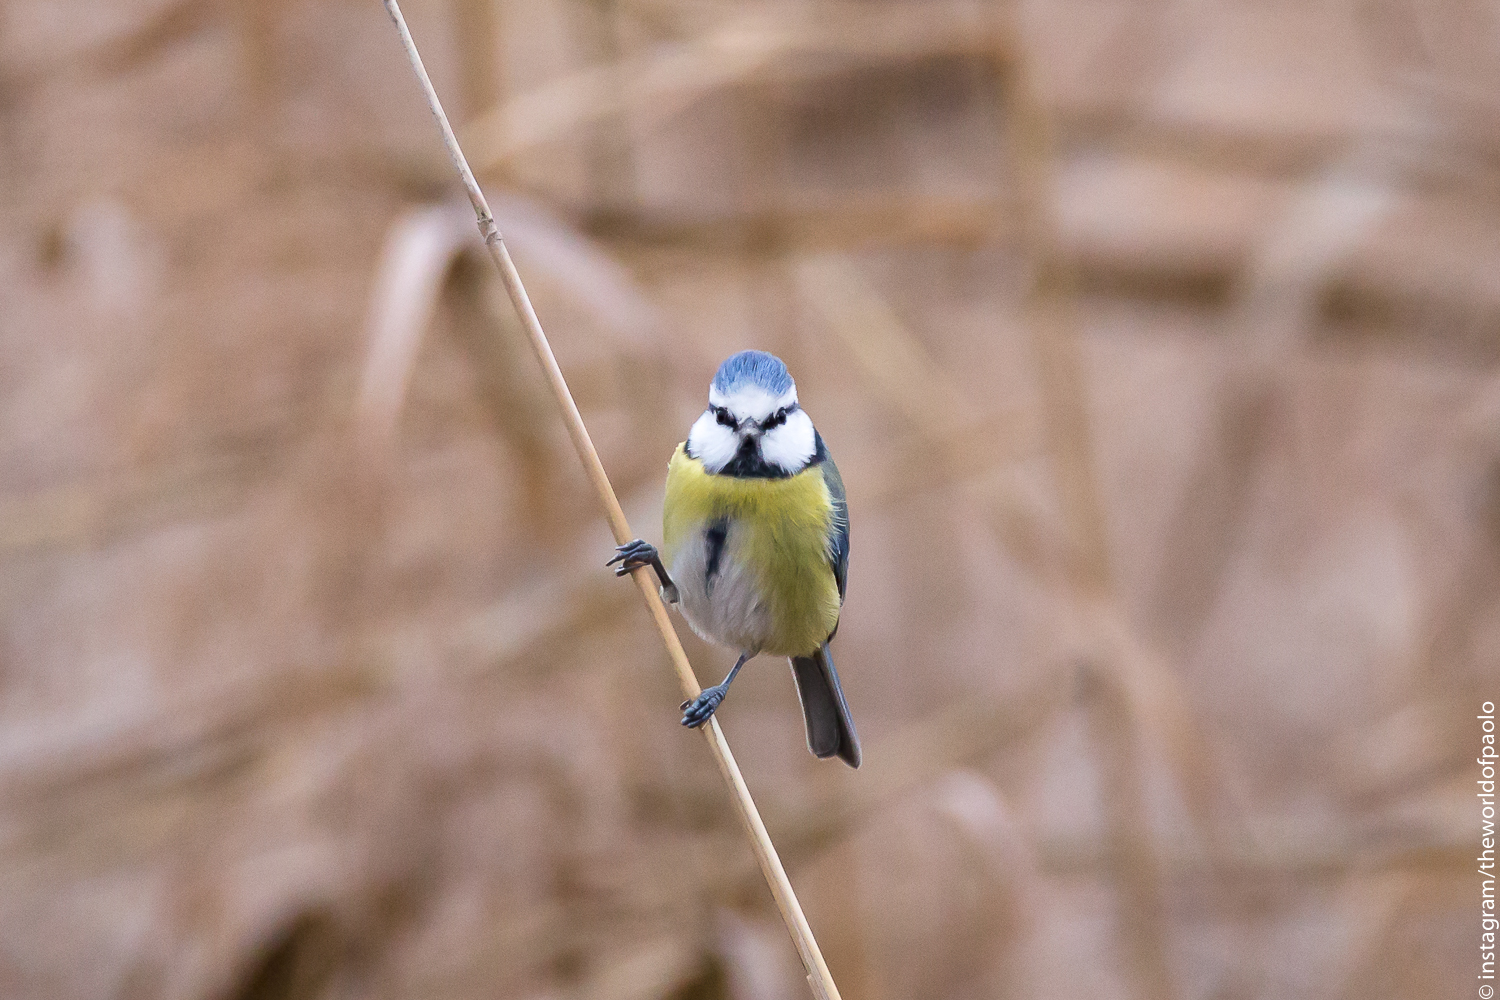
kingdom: Animalia
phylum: Chordata
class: Aves
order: Passeriformes
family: Paridae
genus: Cyanistes
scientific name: Cyanistes caeruleus
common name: Eurasian blue tit
